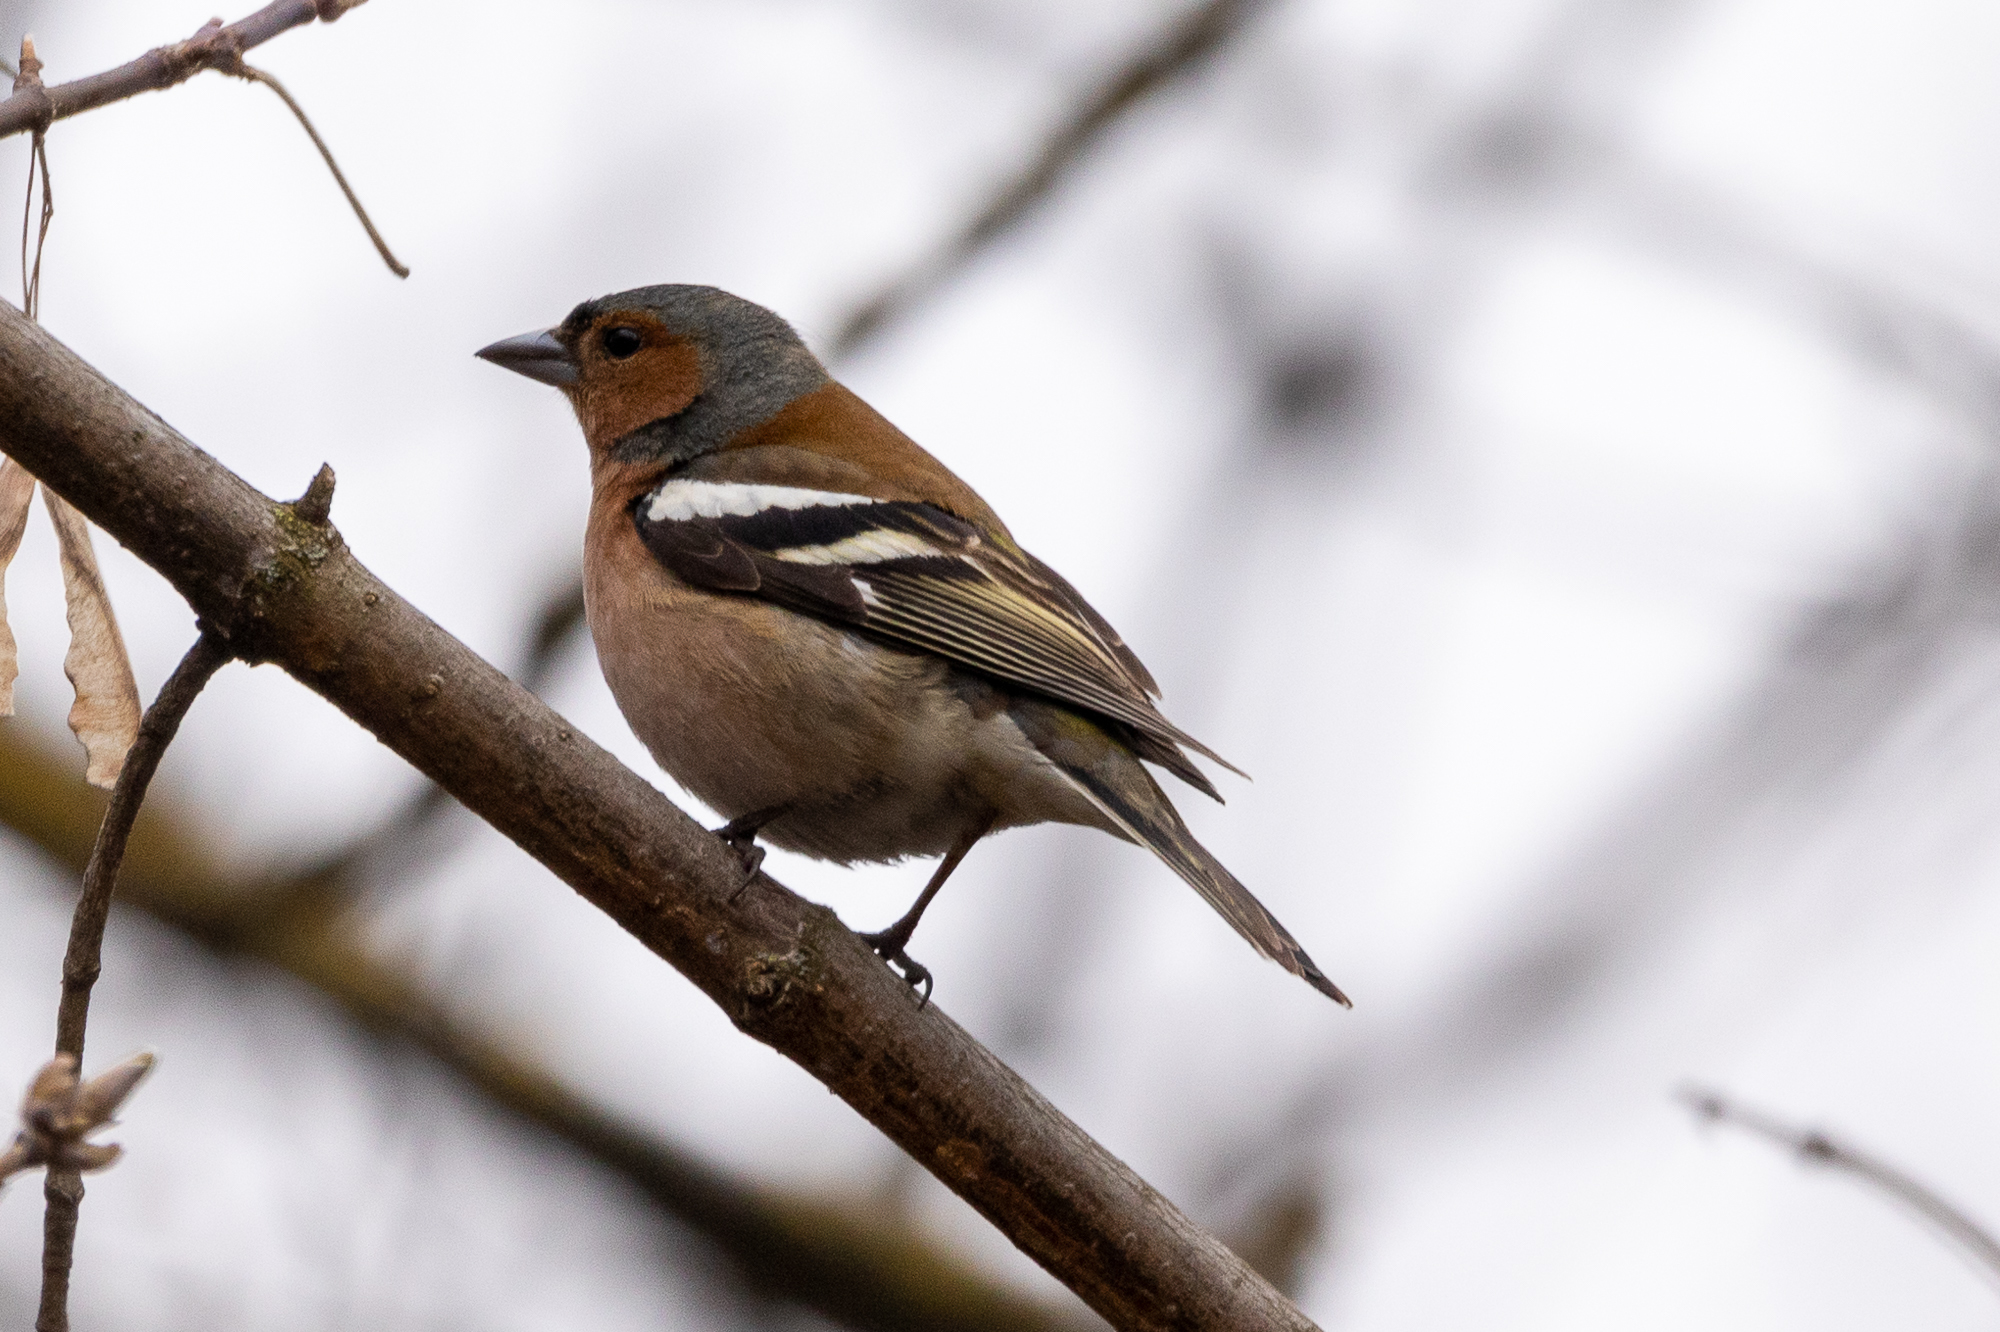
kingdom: Animalia
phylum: Chordata
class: Aves
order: Passeriformes
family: Fringillidae
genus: Fringilla
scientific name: Fringilla coelebs
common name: Common chaffinch
